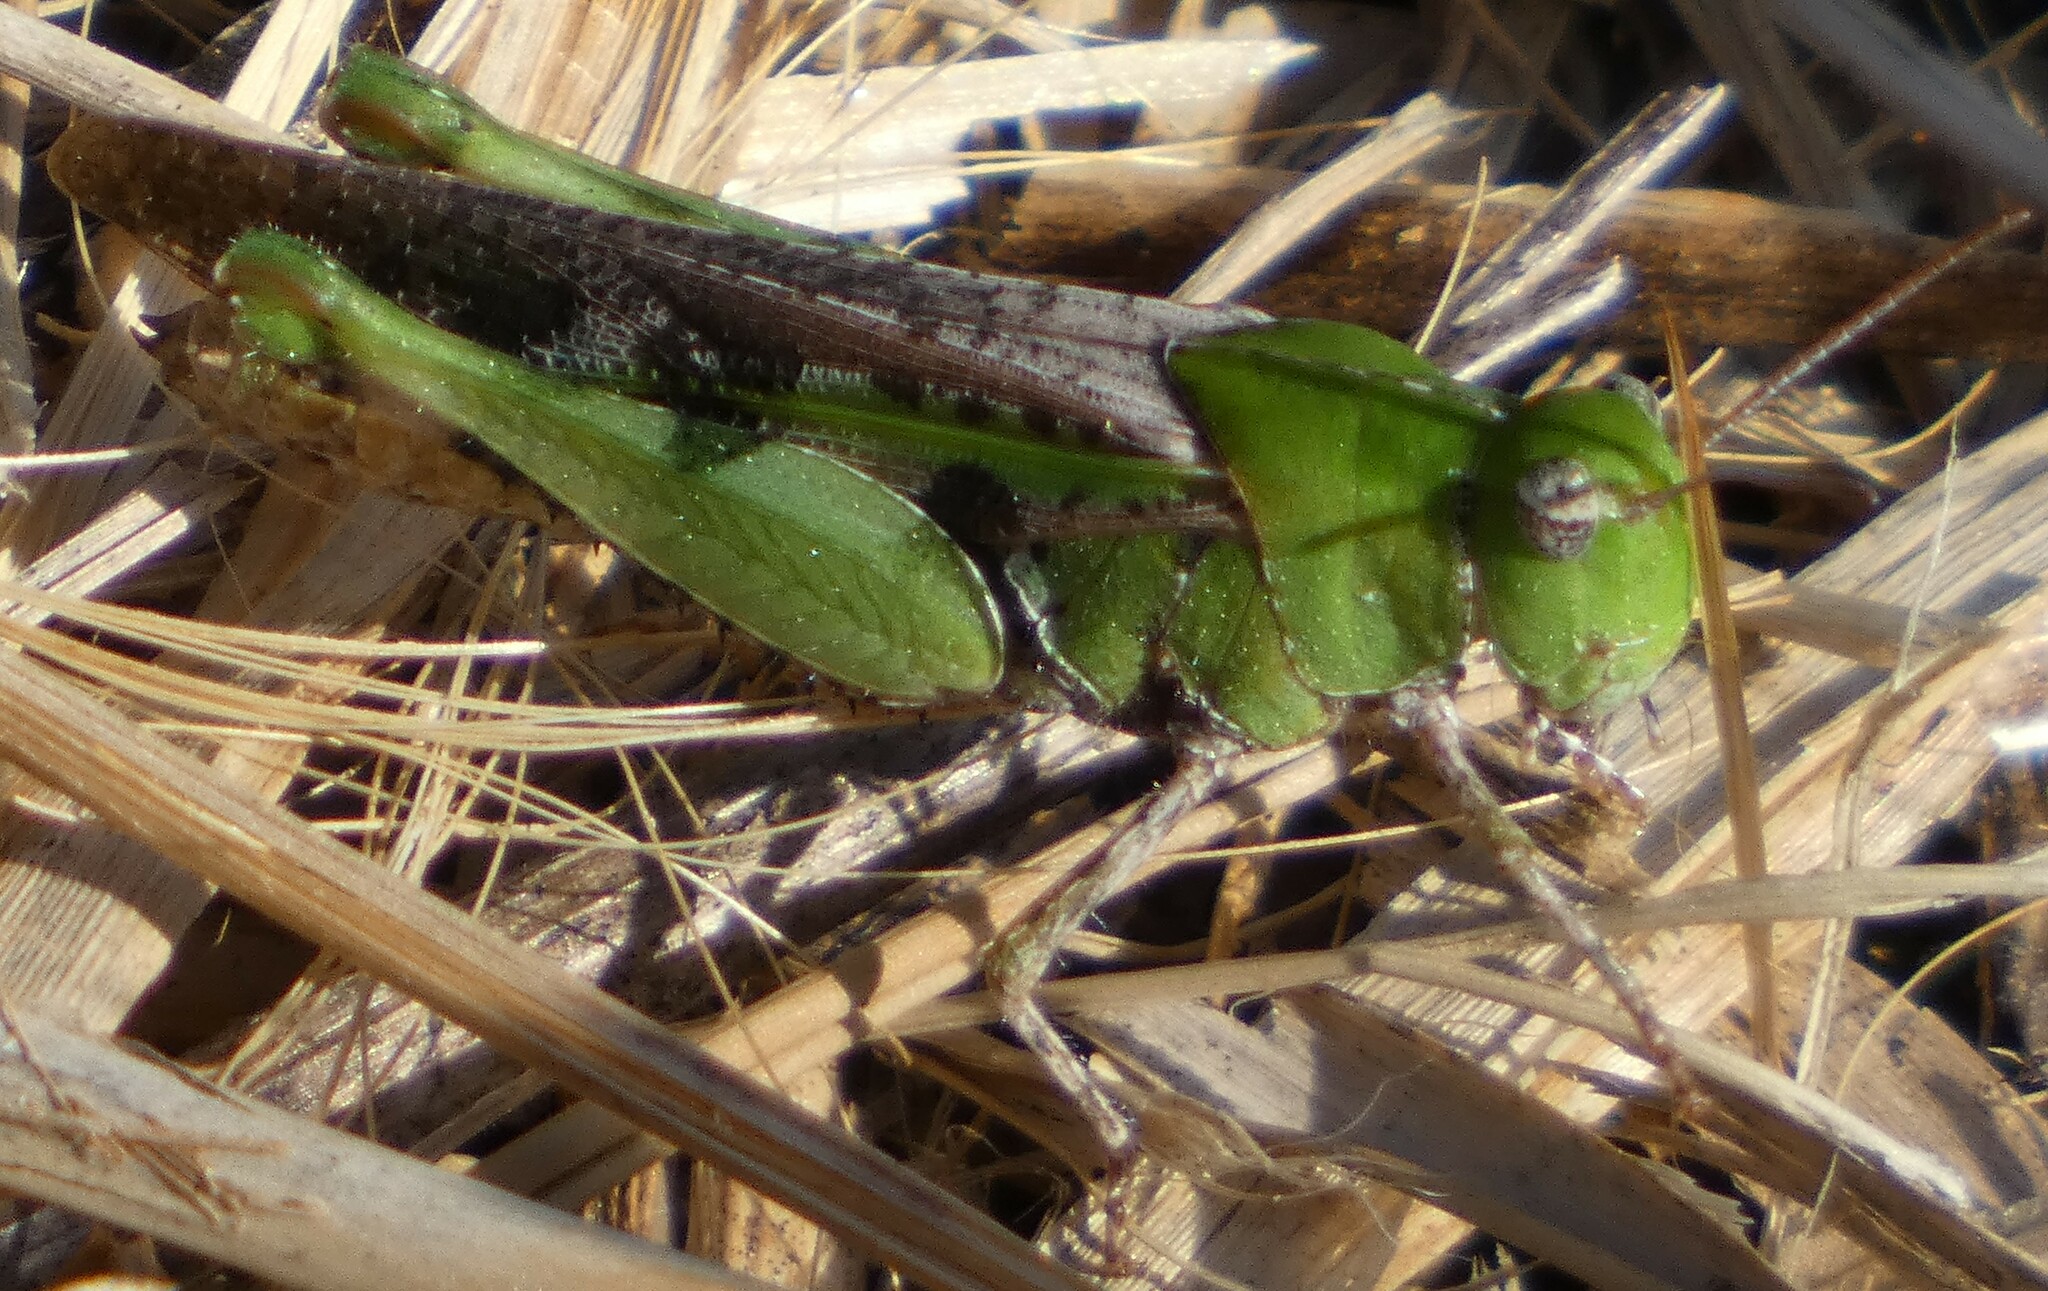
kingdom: Animalia
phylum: Arthropoda
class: Insecta
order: Orthoptera
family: Acrididae
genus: Chortophaga
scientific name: Chortophaga australior
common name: Southern green-striped grasshopper
